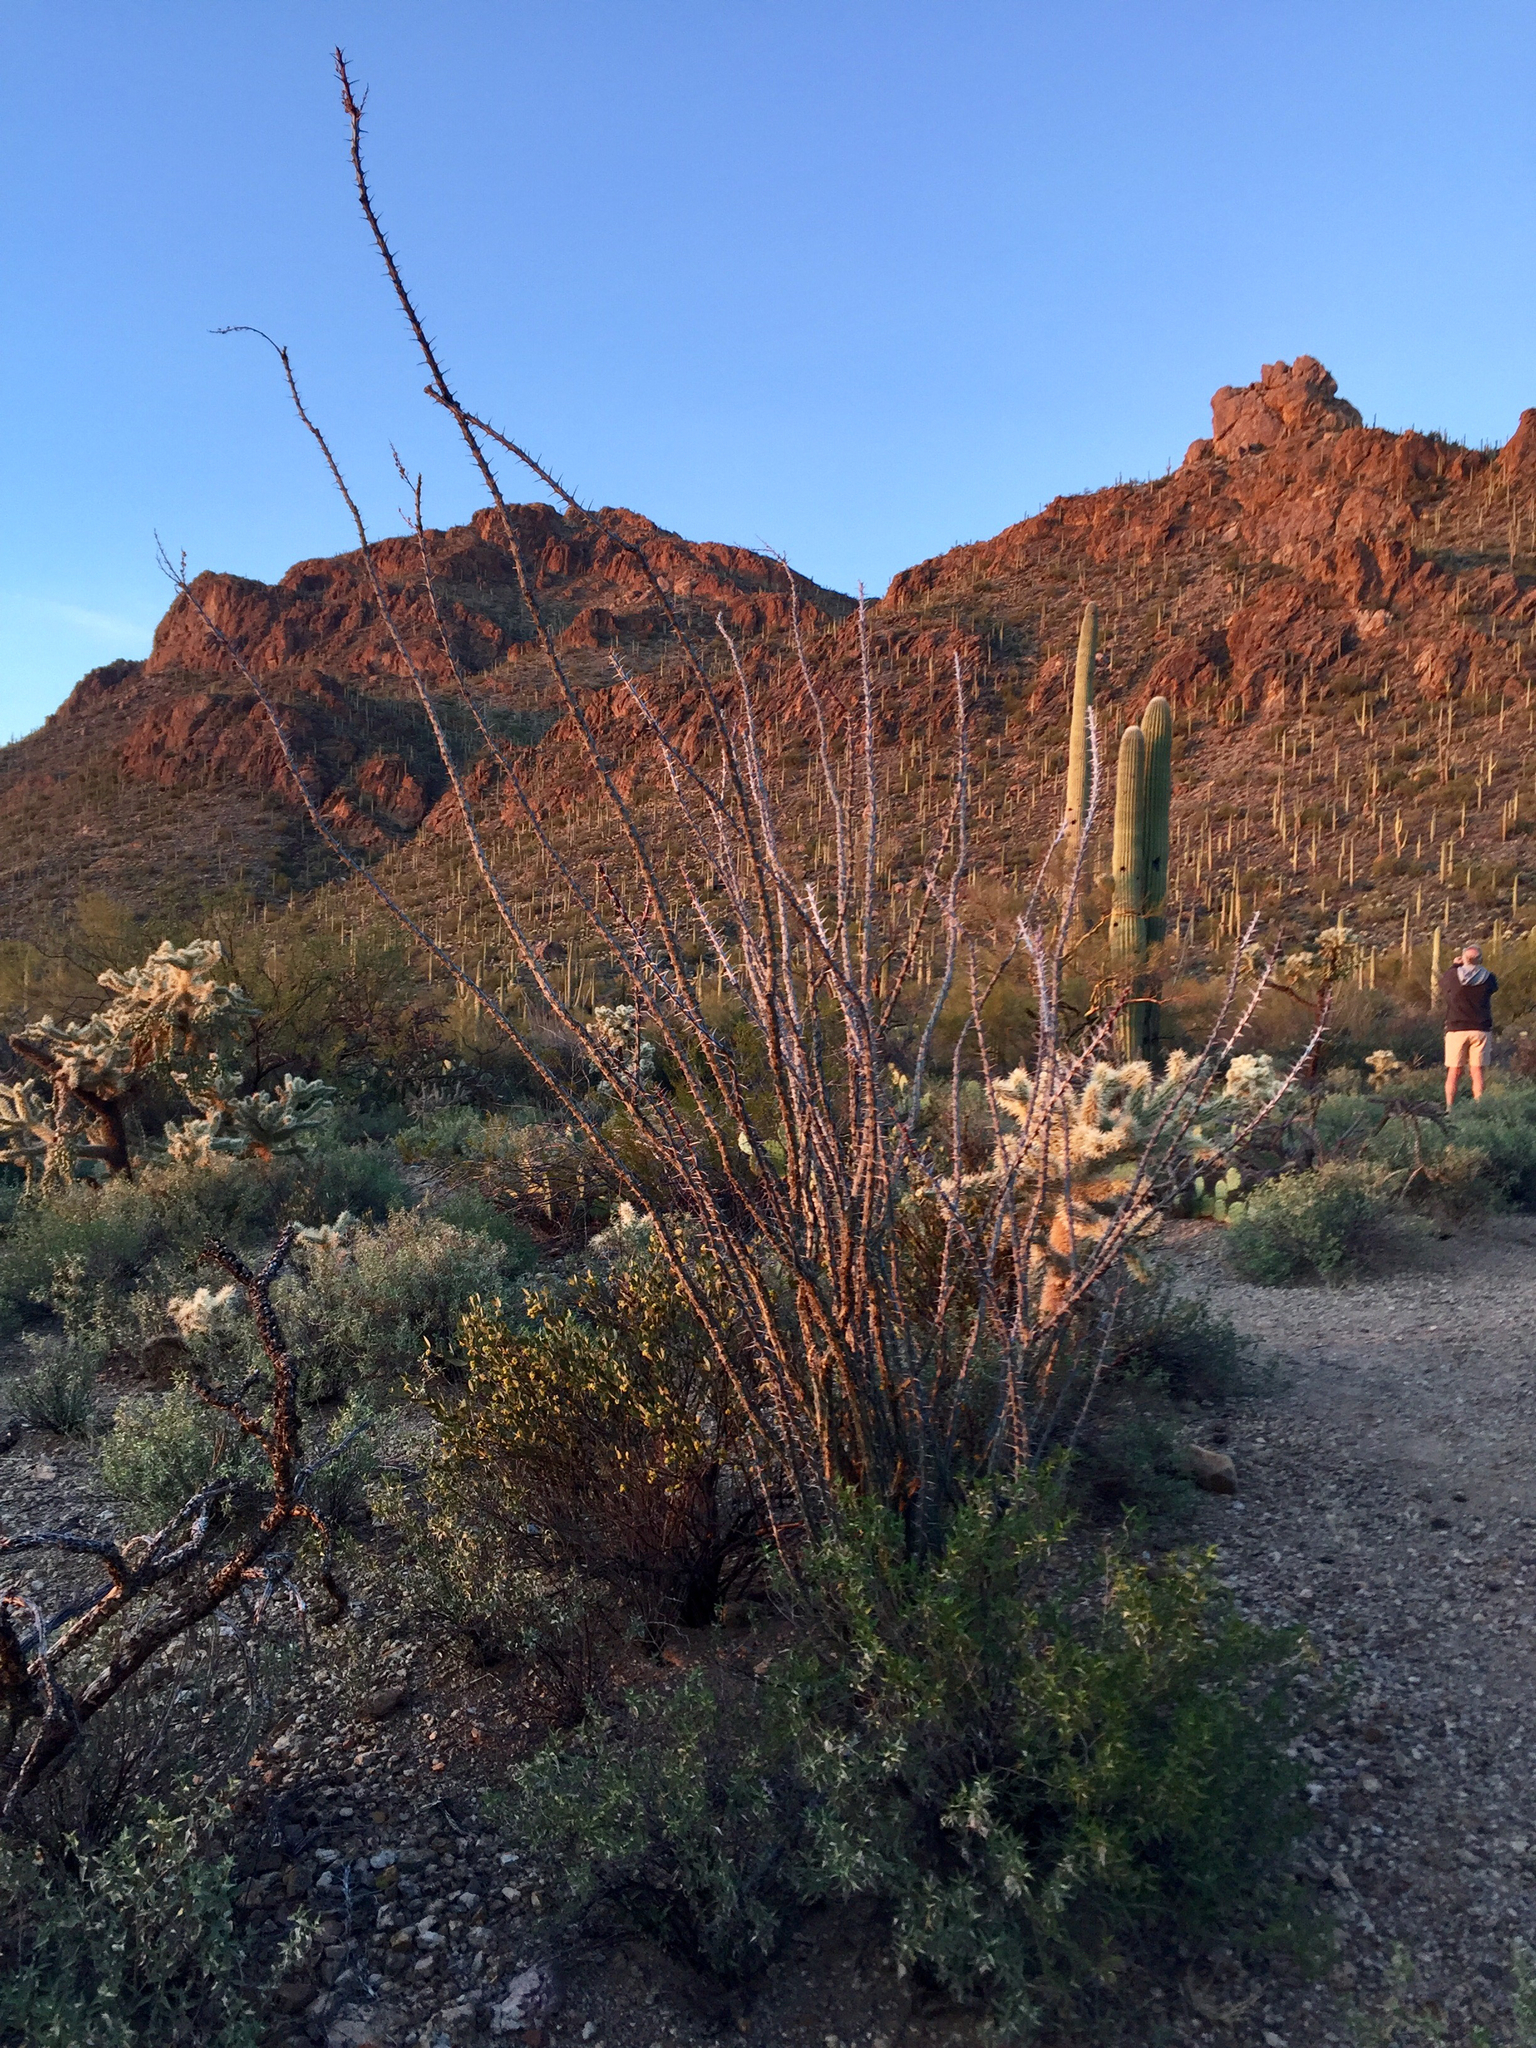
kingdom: Plantae
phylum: Tracheophyta
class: Magnoliopsida
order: Ericales
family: Fouquieriaceae
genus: Fouquieria
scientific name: Fouquieria splendens
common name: Vine-cactus
